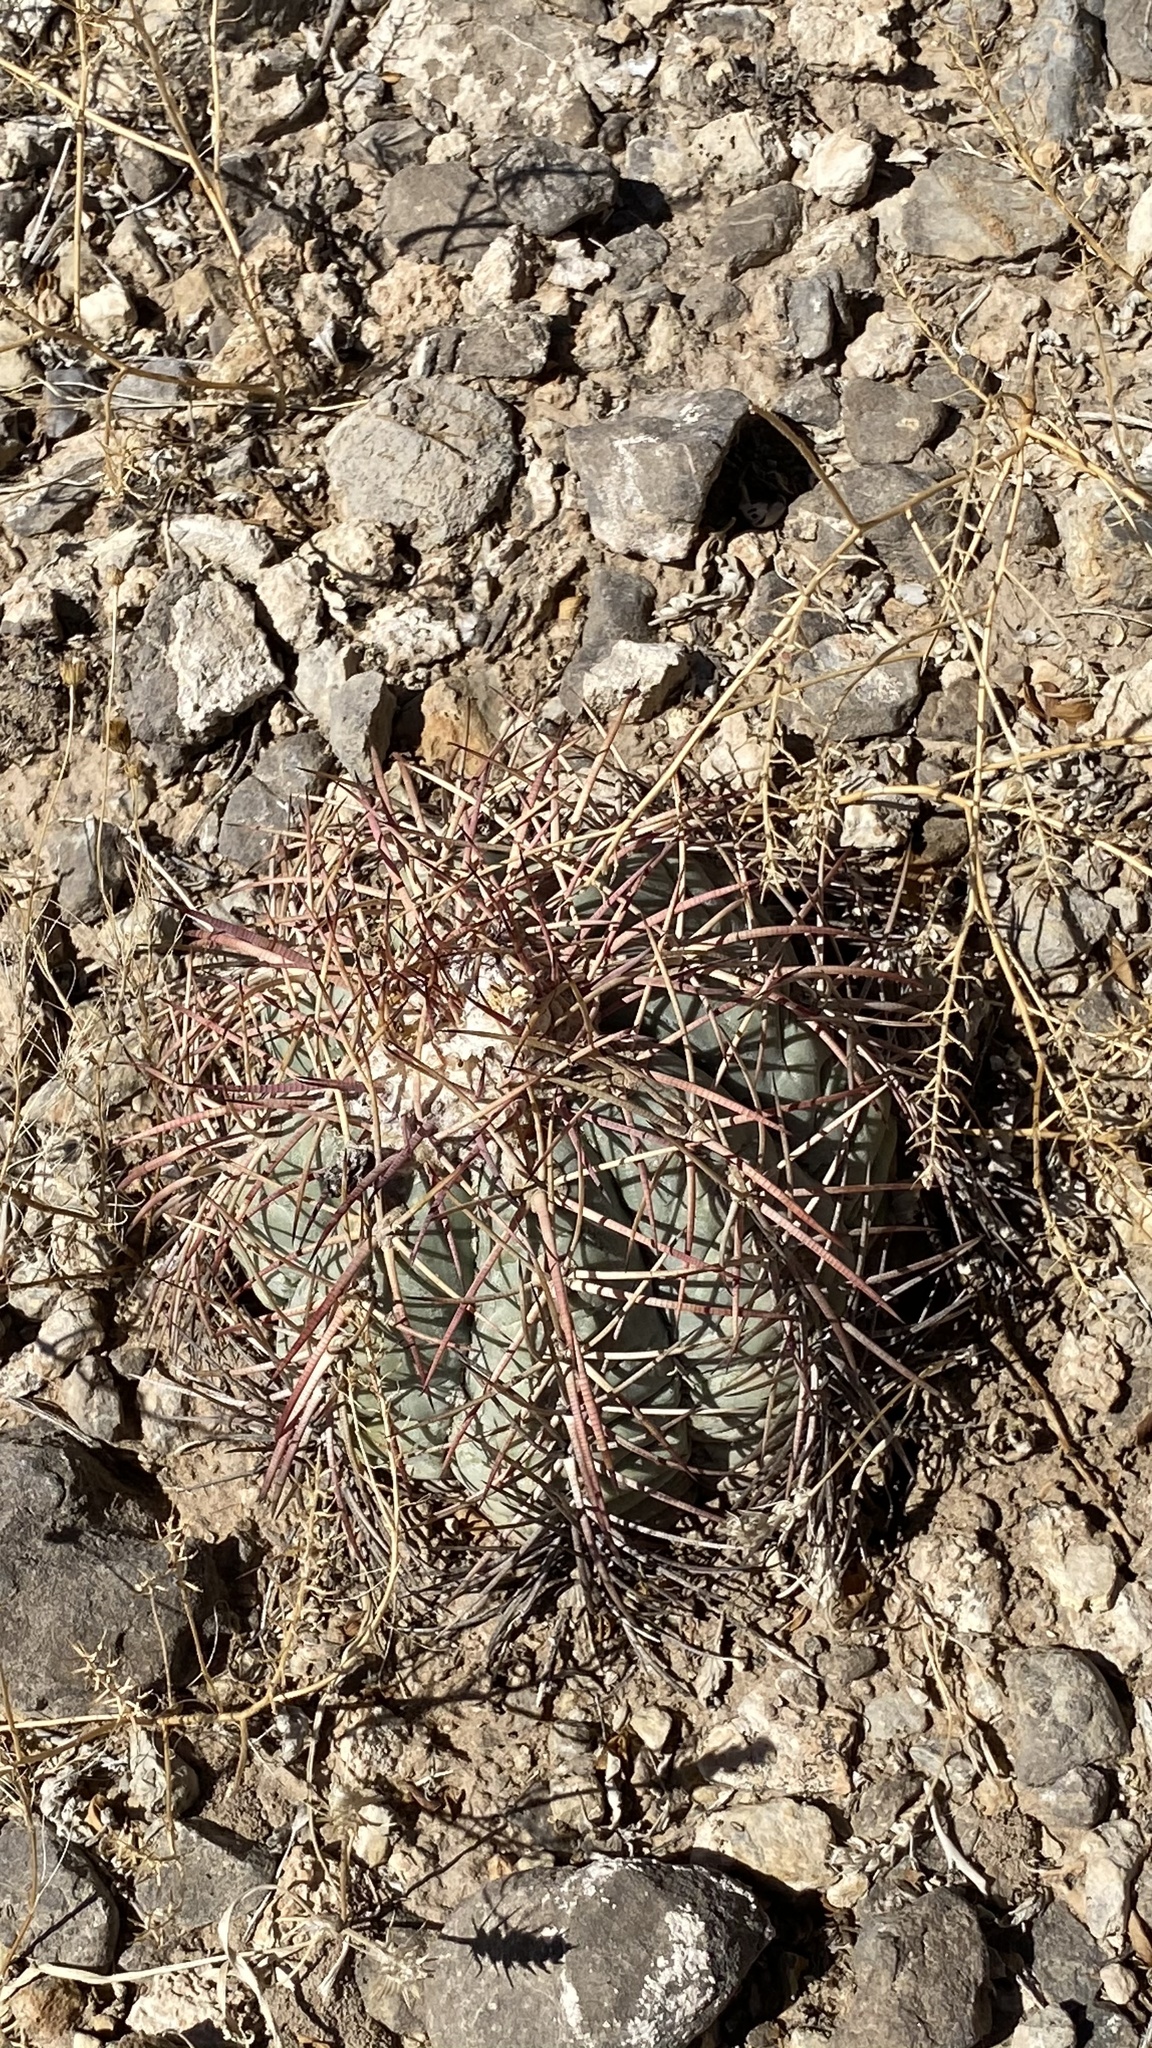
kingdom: Plantae
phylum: Tracheophyta
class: Magnoliopsida
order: Caryophyllales
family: Cactaceae
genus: Echinocactus
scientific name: Echinocactus horizonthalonius
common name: Devilshead
